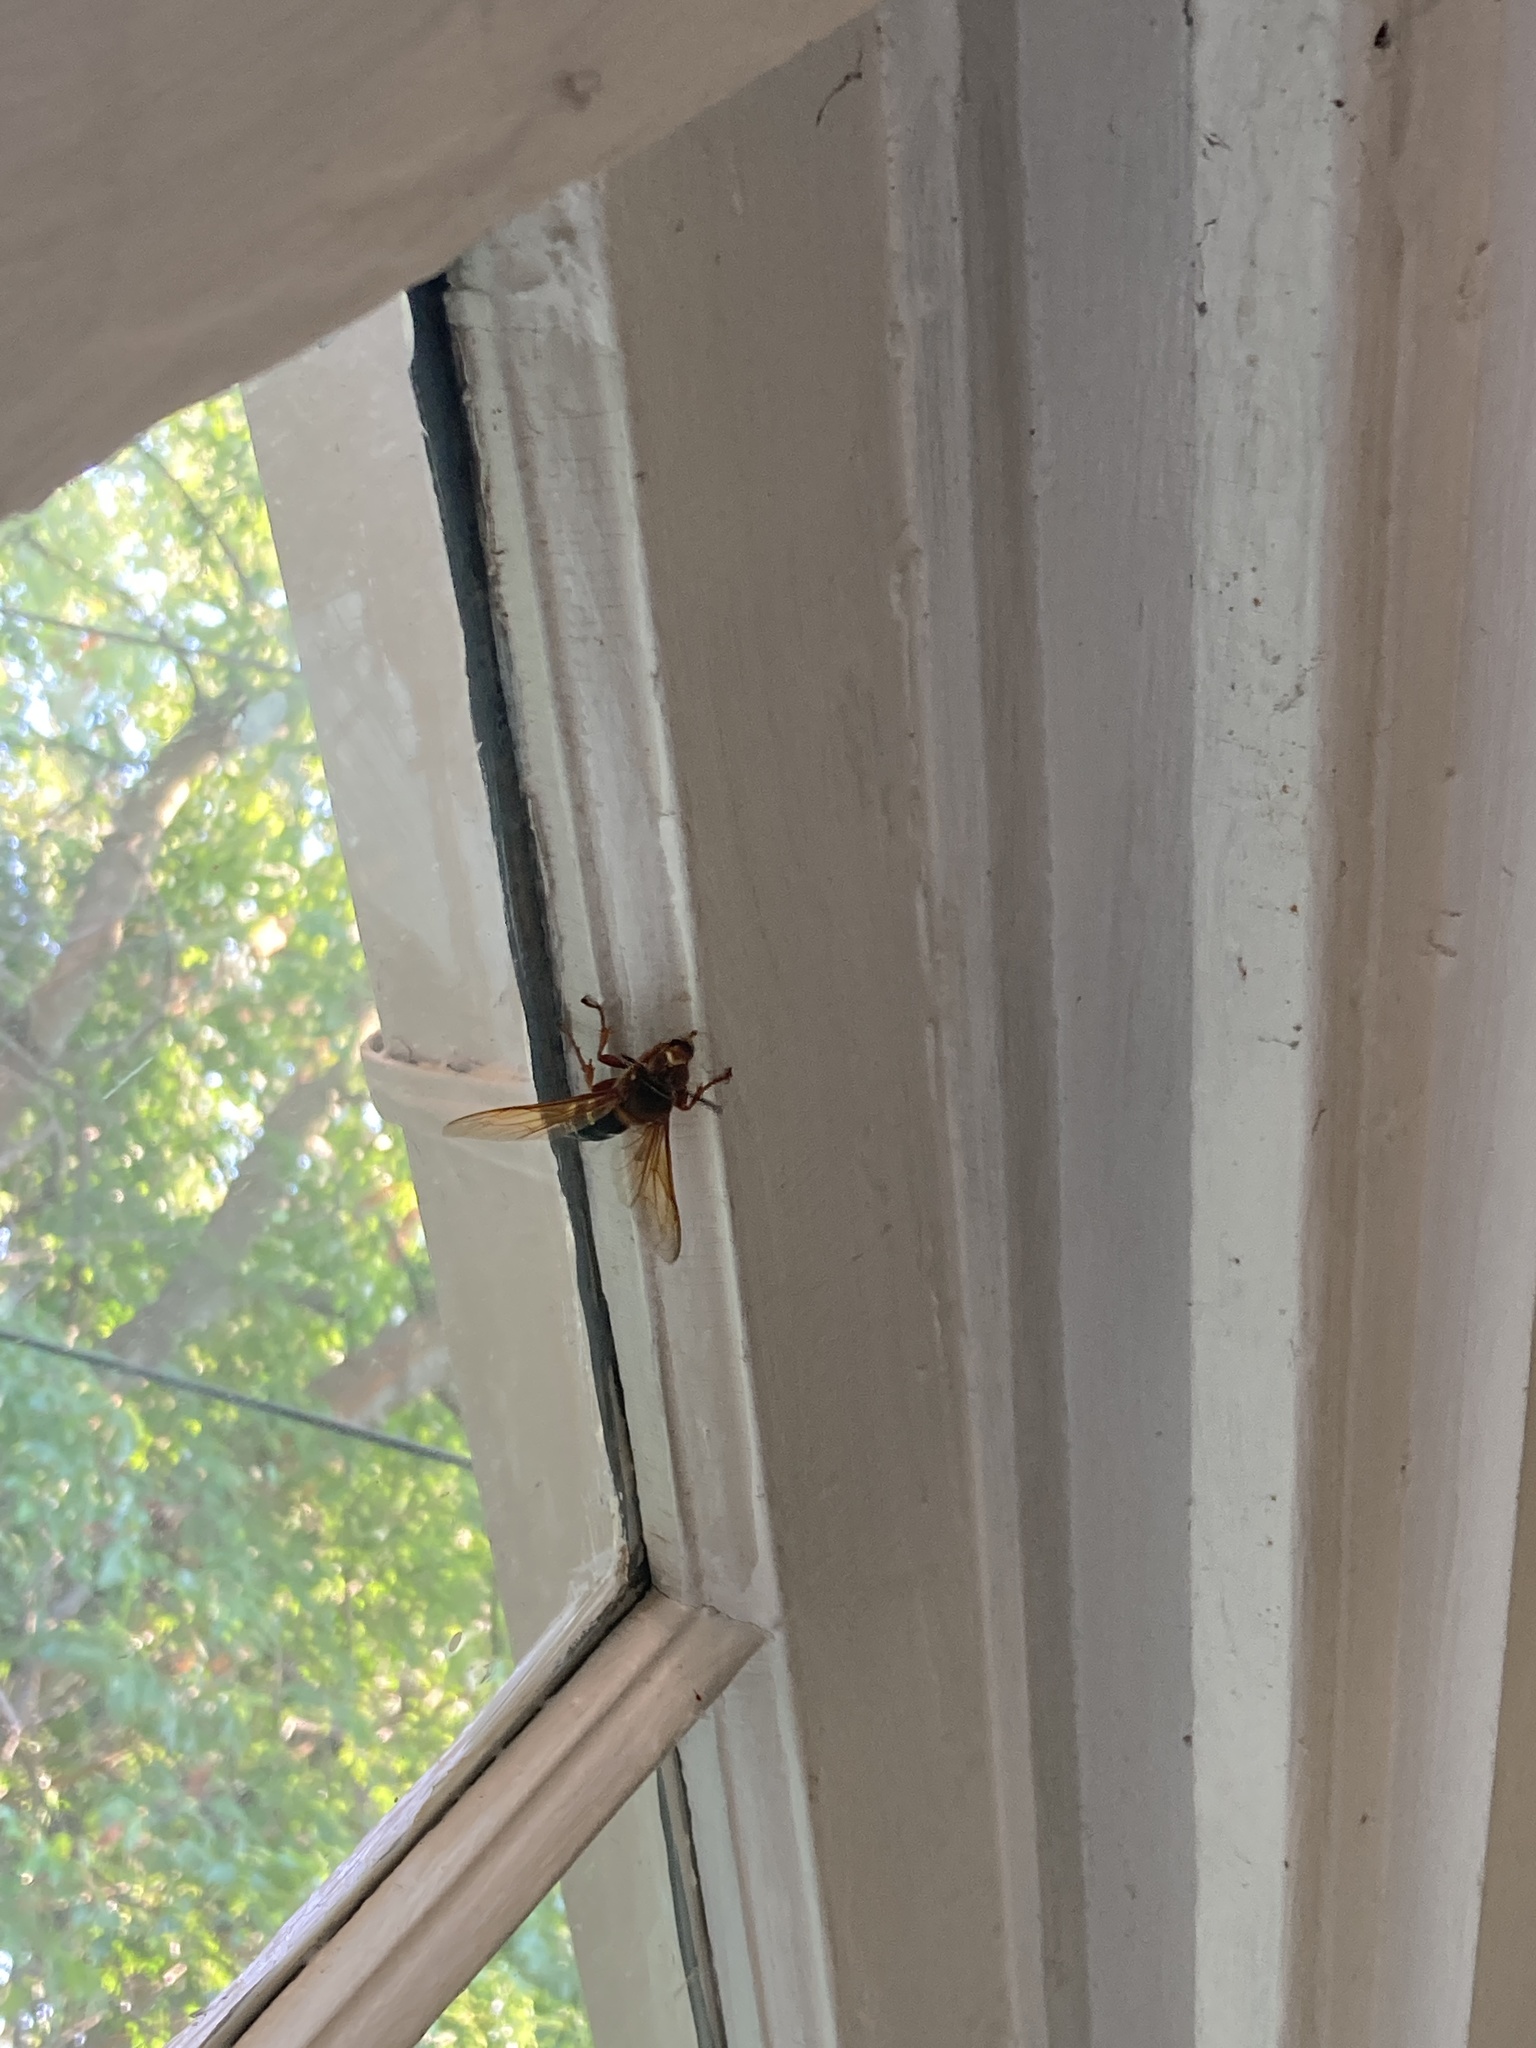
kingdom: Animalia
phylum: Arthropoda
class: Insecta
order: Hymenoptera
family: Crabronidae
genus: Sphecius
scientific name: Sphecius speciosus
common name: Cicada killer
